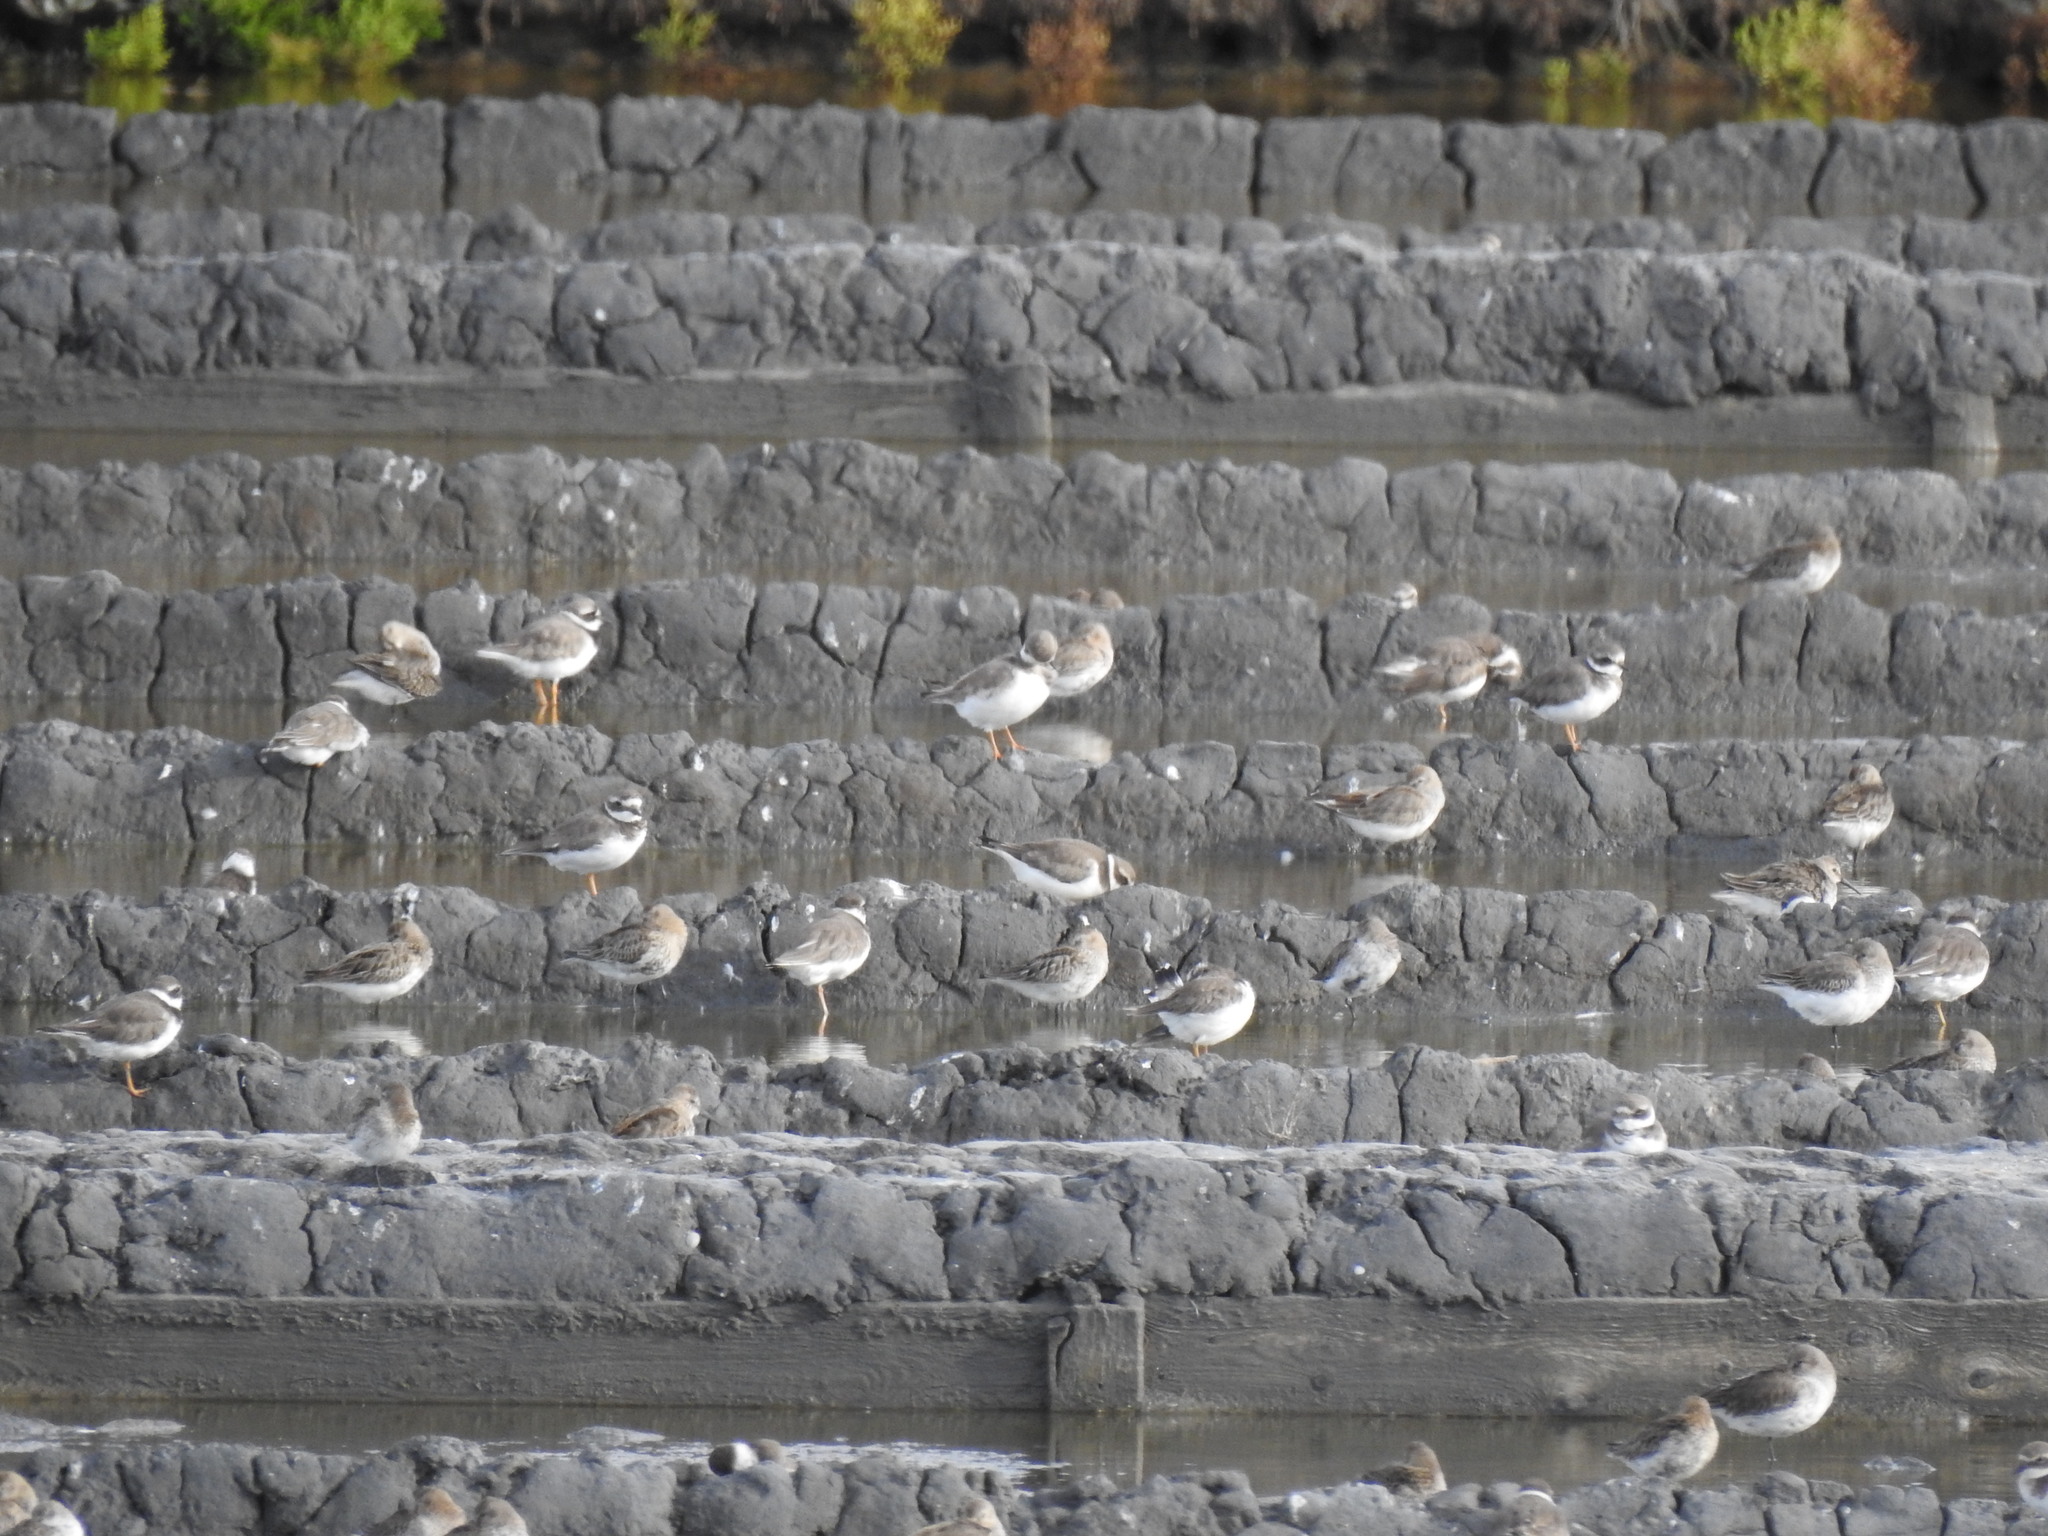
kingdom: Animalia
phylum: Chordata
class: Aves
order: Charadriiformes
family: Charadriidae
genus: Charadrius
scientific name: Charadrius hiaticula
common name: Common ringed plover
